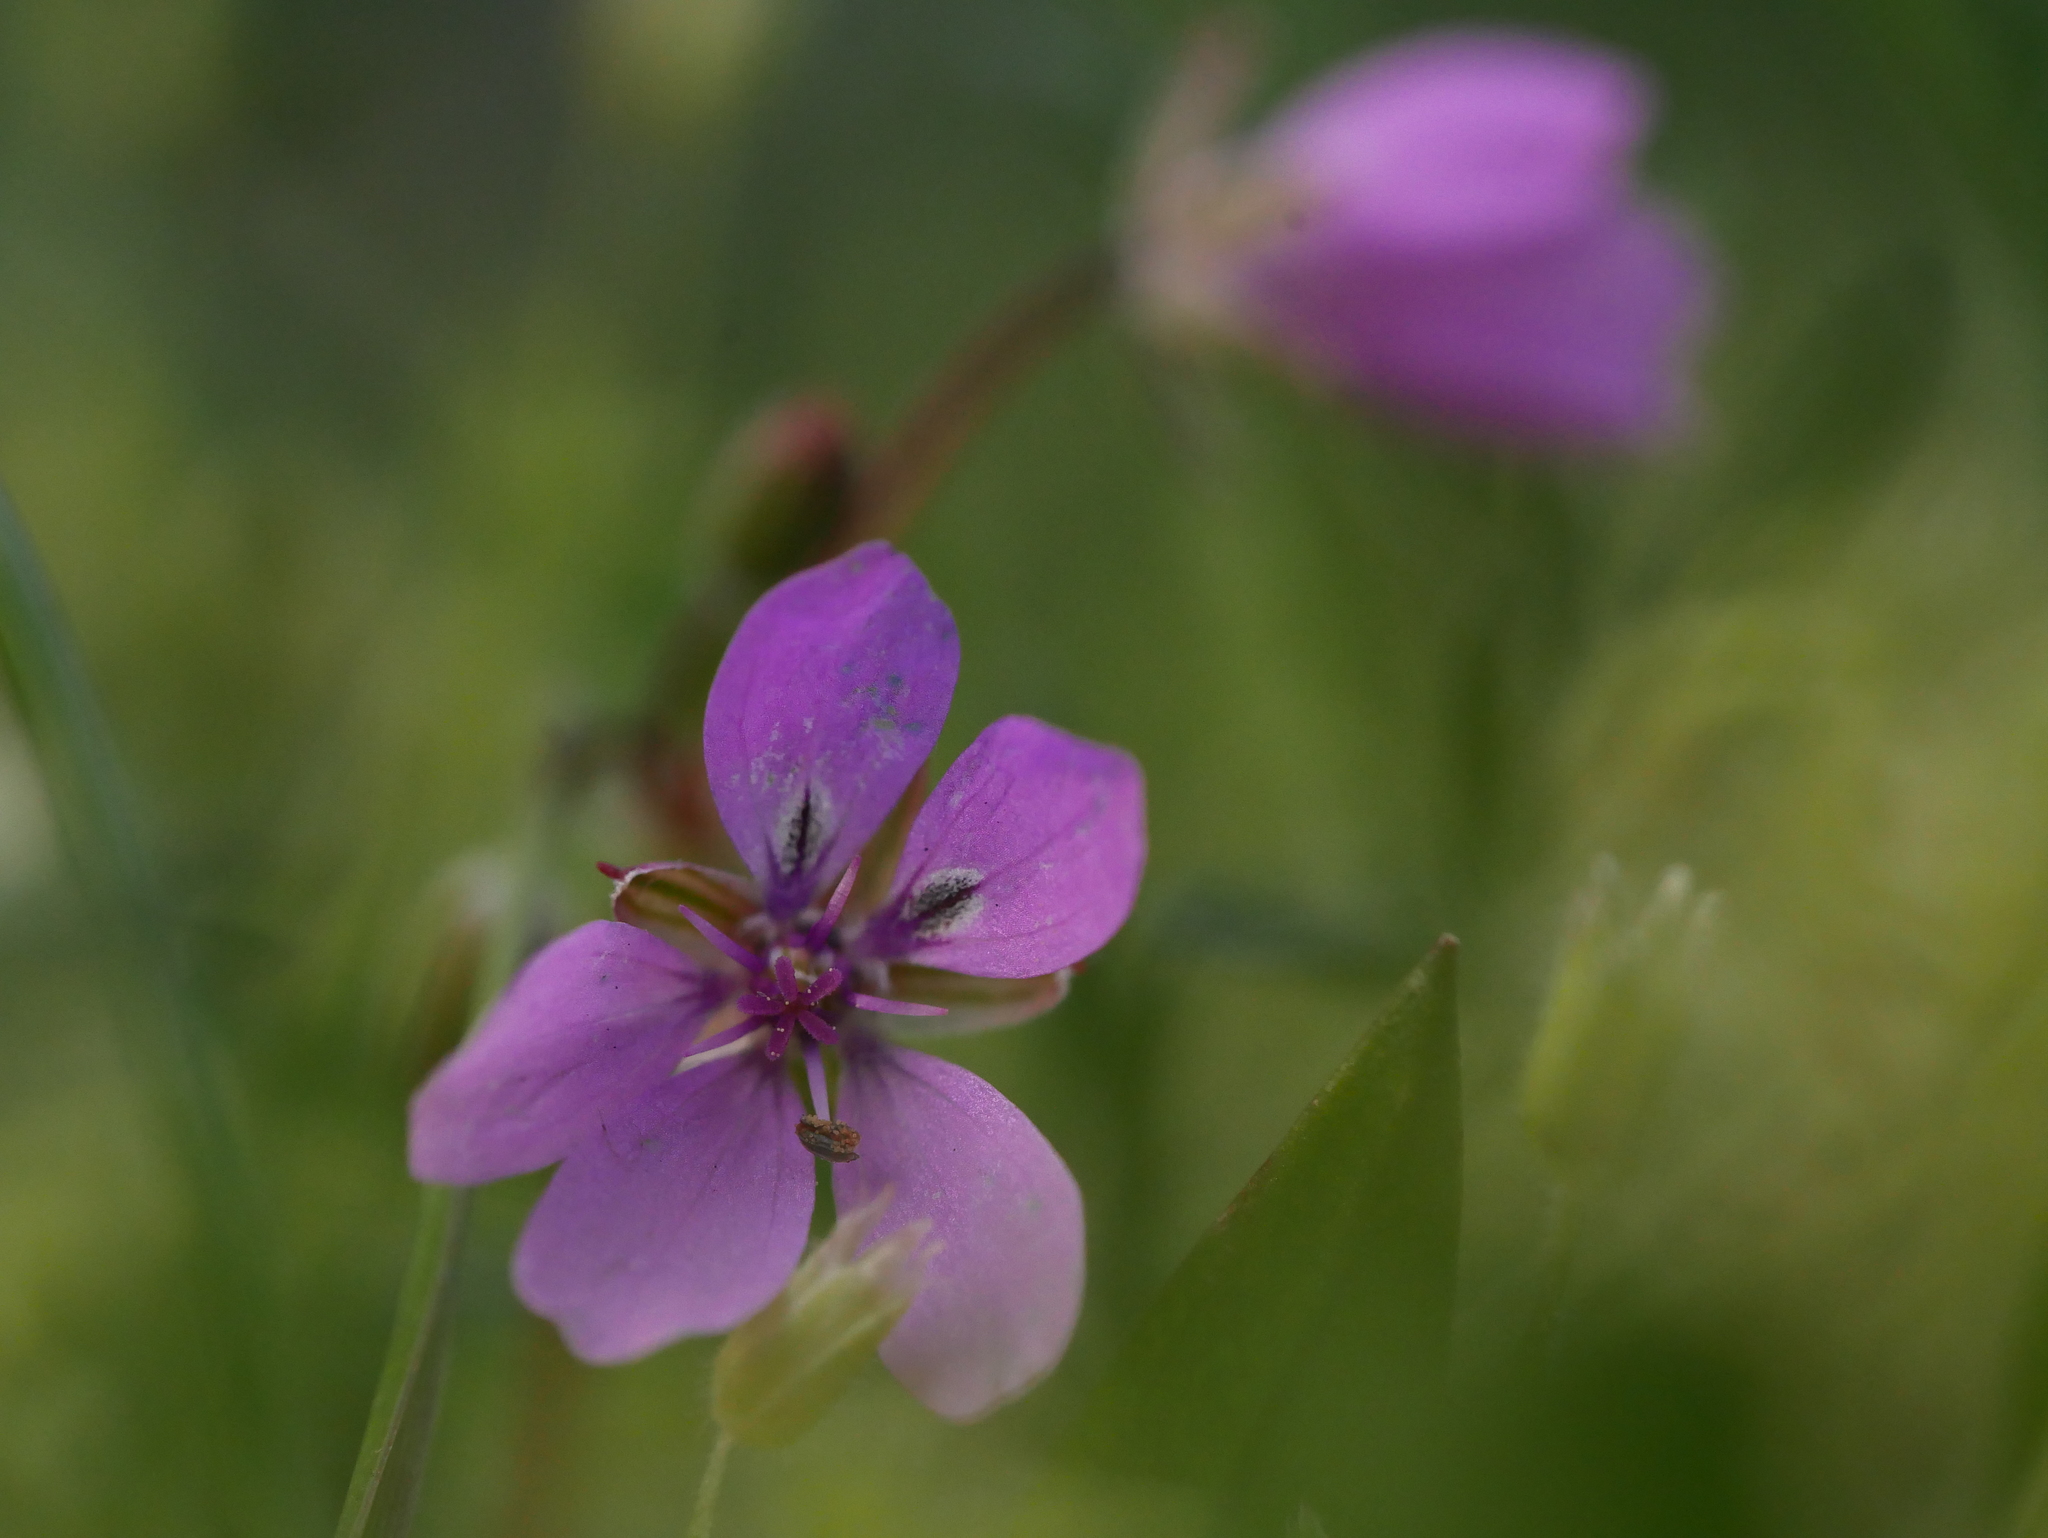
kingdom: Plantae
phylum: Tracheophyta
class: Magnoliopsida
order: Geraniales
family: Geraniaceae
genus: Erodium
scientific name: Erodium cicutarium
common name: Common stork's-bill
